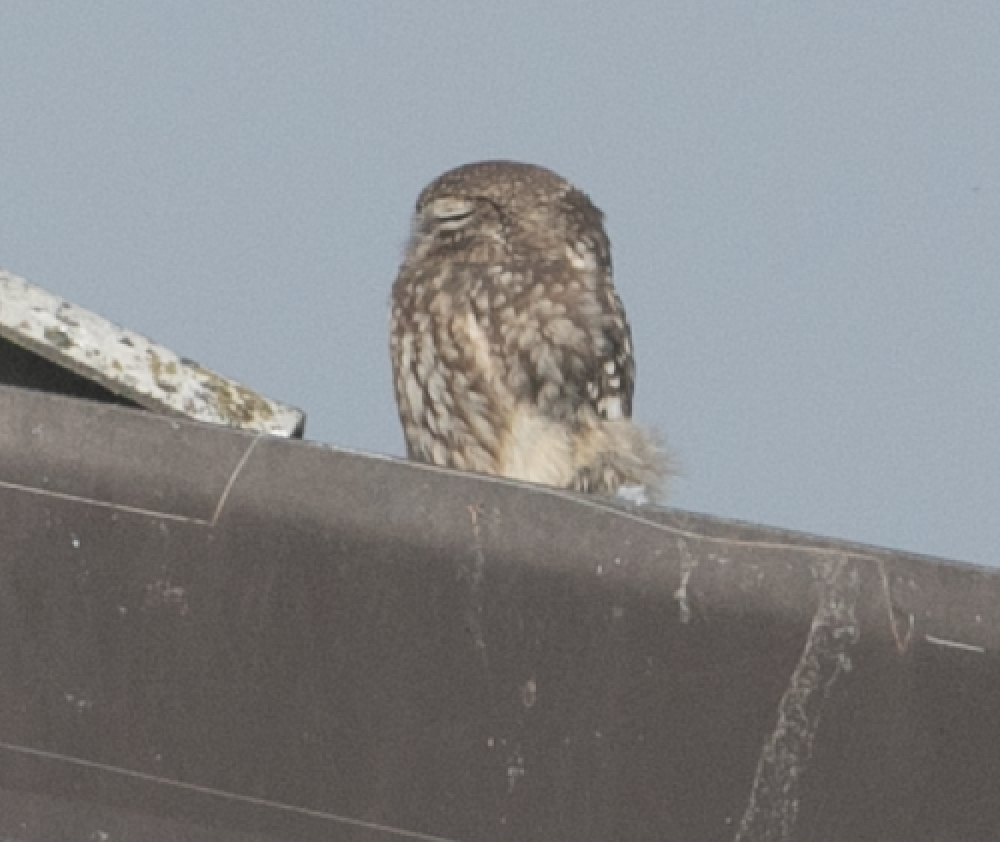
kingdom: Animalia
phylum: Chordata
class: Aves
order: Strigiformes
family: Strigidae
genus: Athene
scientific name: Athene noctua
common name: Little owl
